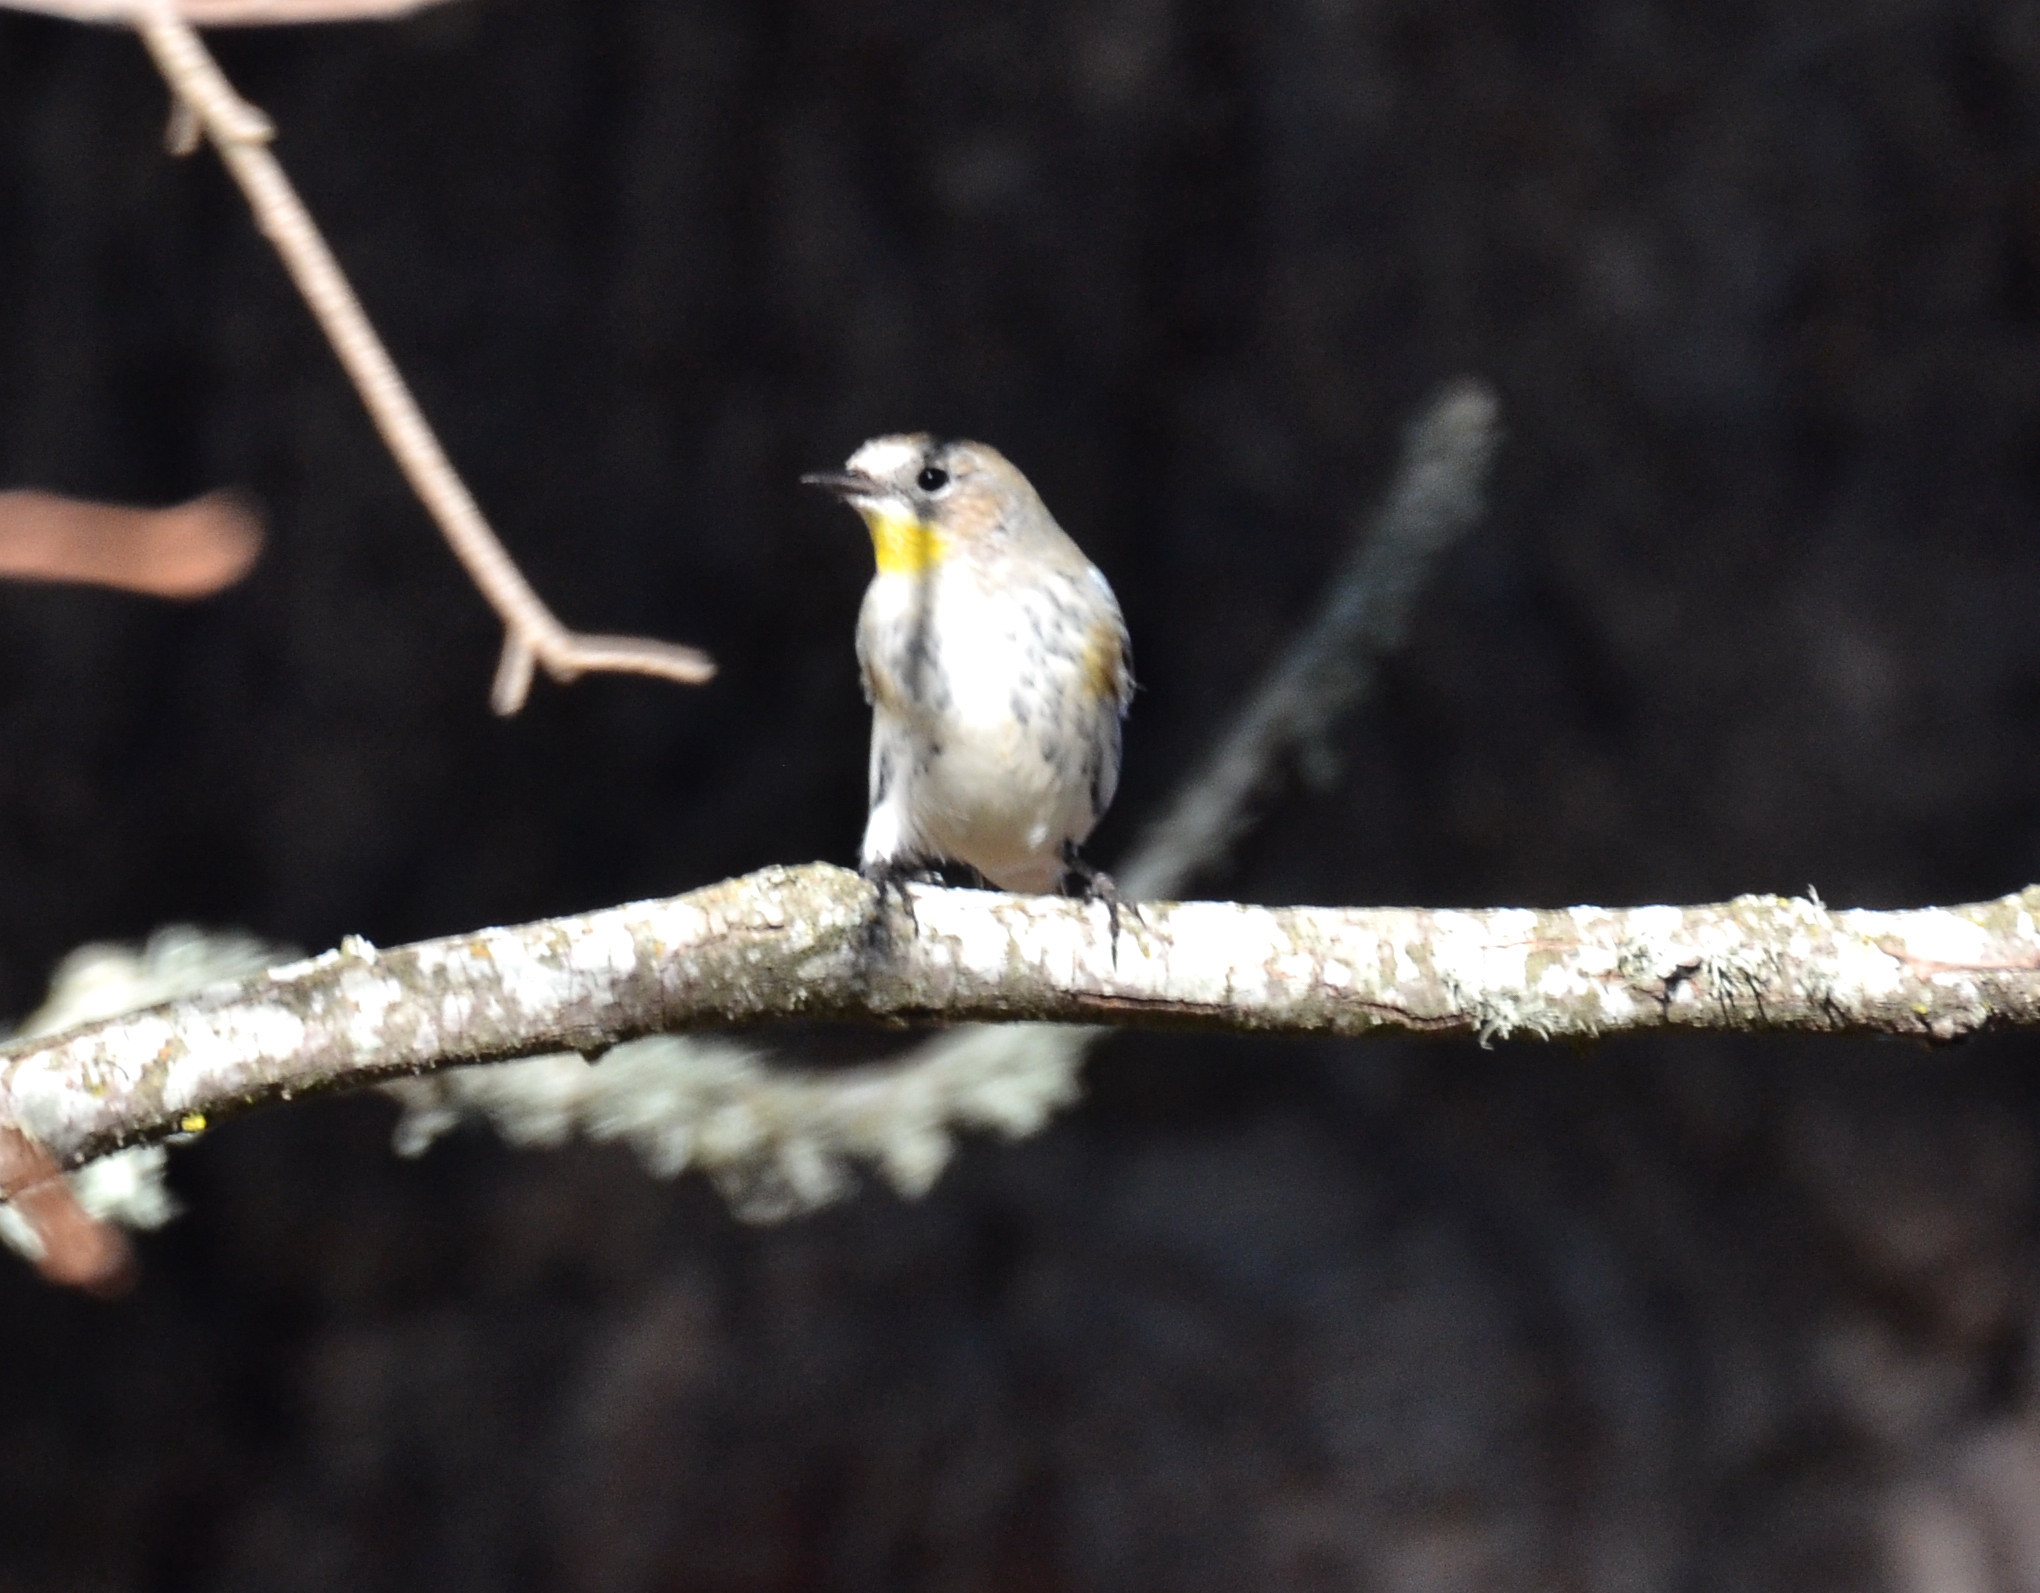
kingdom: Animalia
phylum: Chordata
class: Aves
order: Passeriformes
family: Parulidae
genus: Setophaga
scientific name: Setophaga coronata
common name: Myrtle warbler
